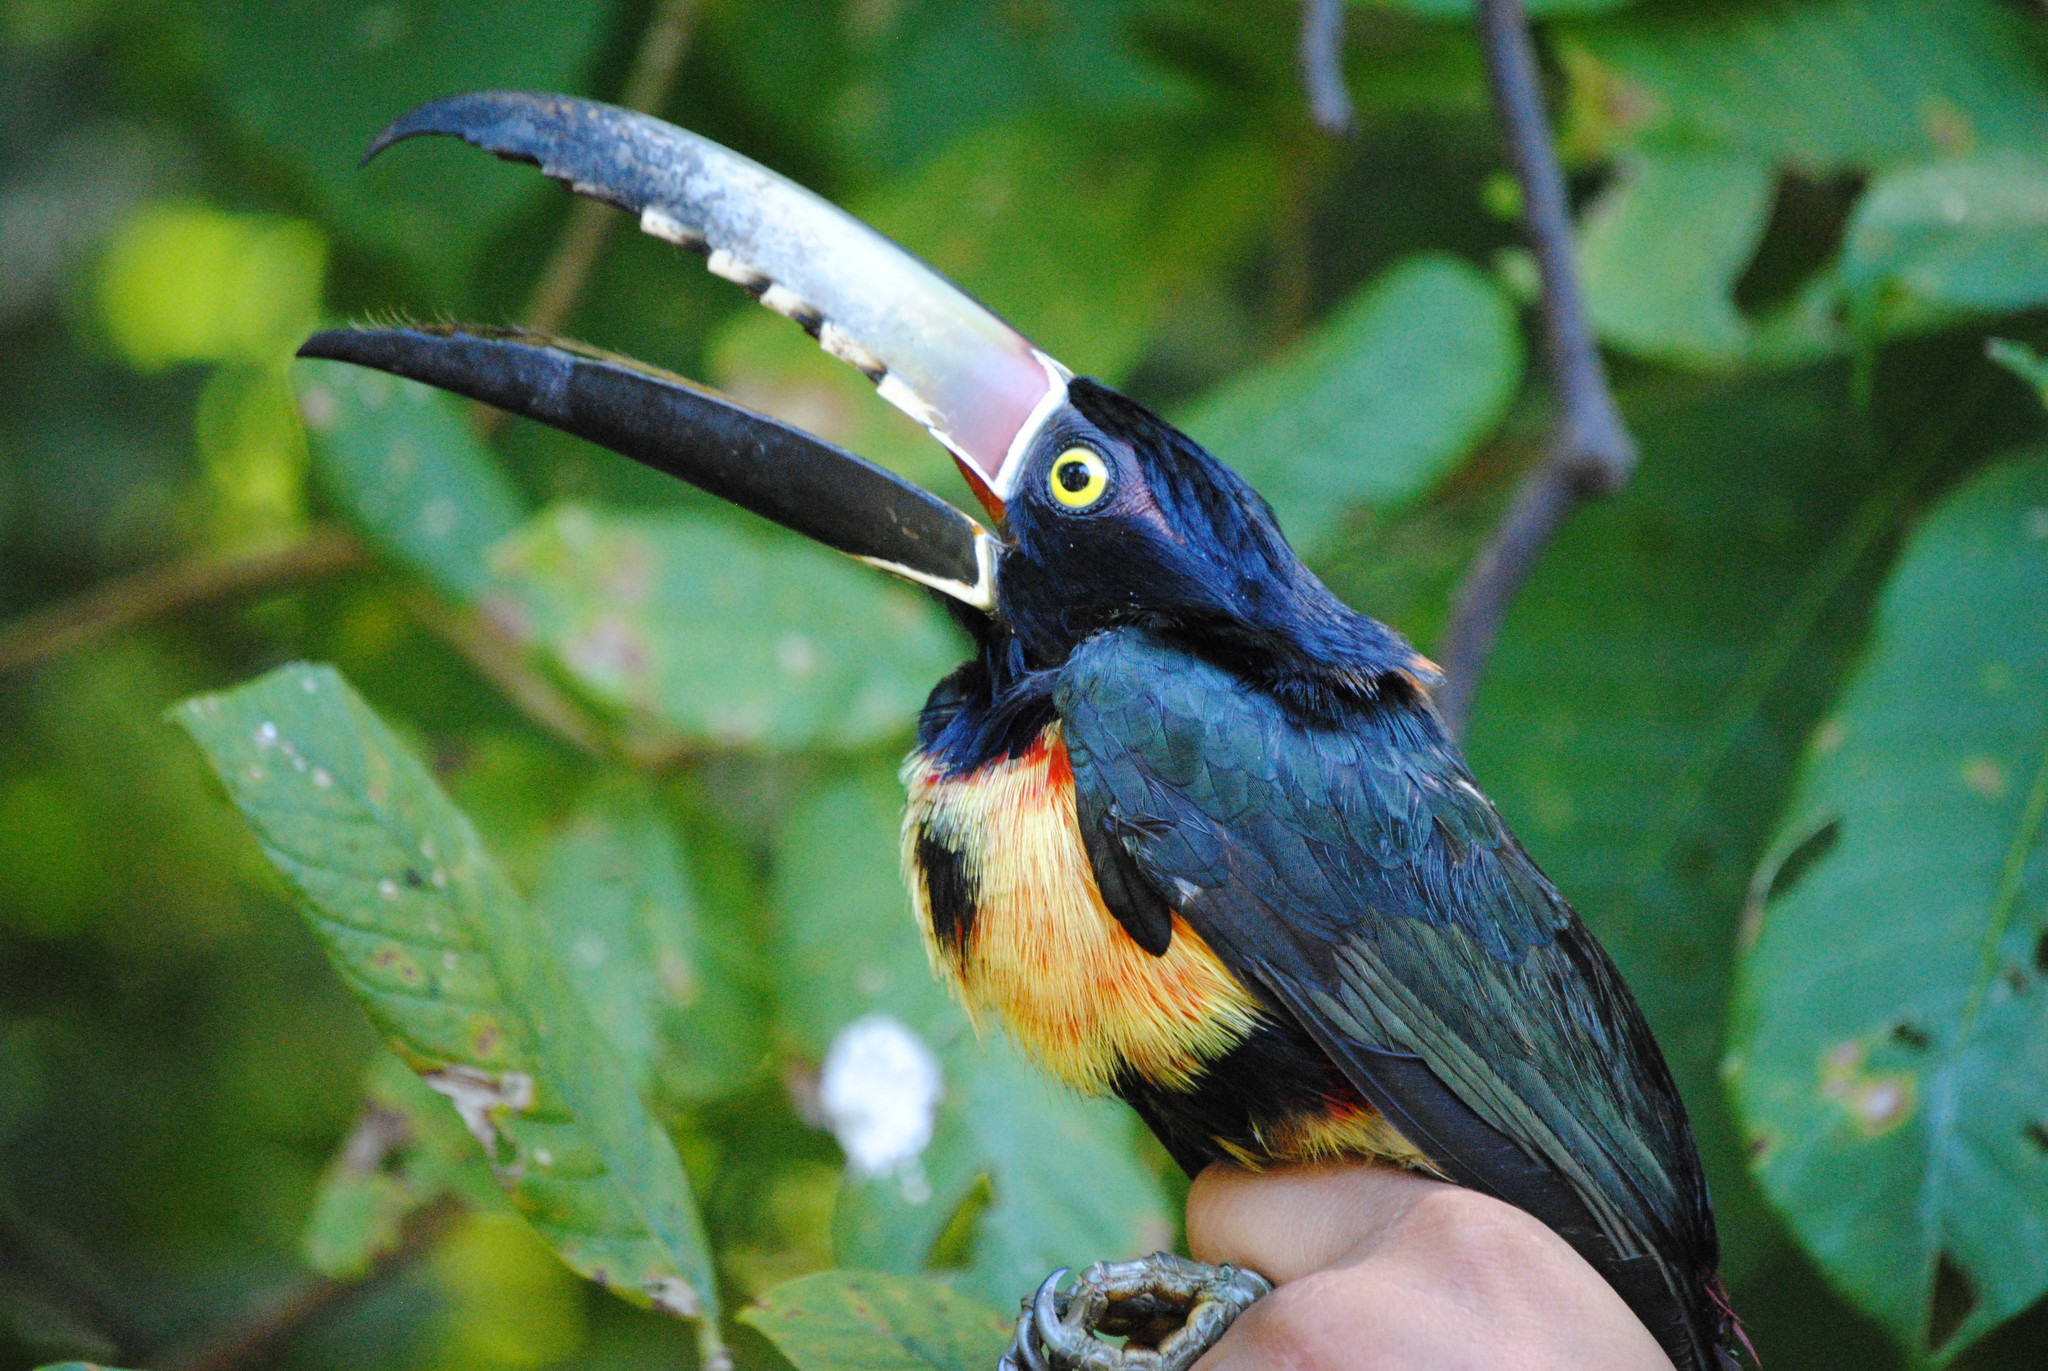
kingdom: Animalia
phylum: Chordata
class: Aves
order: Piciformes
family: Ramphastidae
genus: Pteroglossus
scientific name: Pteroglossus torquatus
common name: Collared aracari
